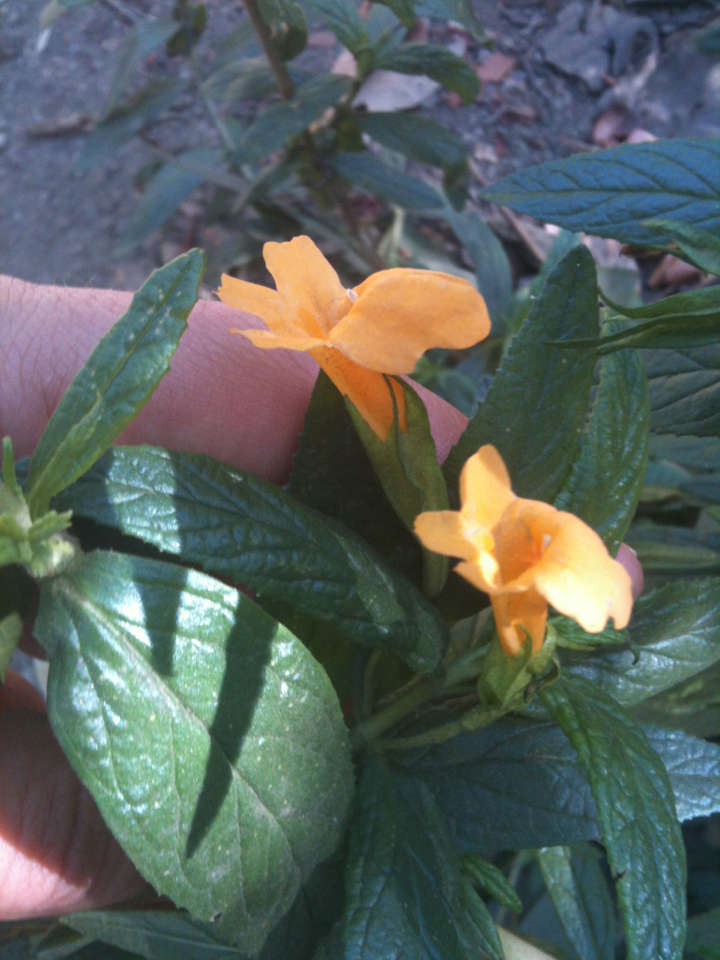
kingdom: Plantae
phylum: Tracheophyta
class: Magnoliopsida
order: Lamiales
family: Phrymaceae
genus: Diplacus
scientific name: Diplacus aurantiacus
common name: Bush monkey-flower
